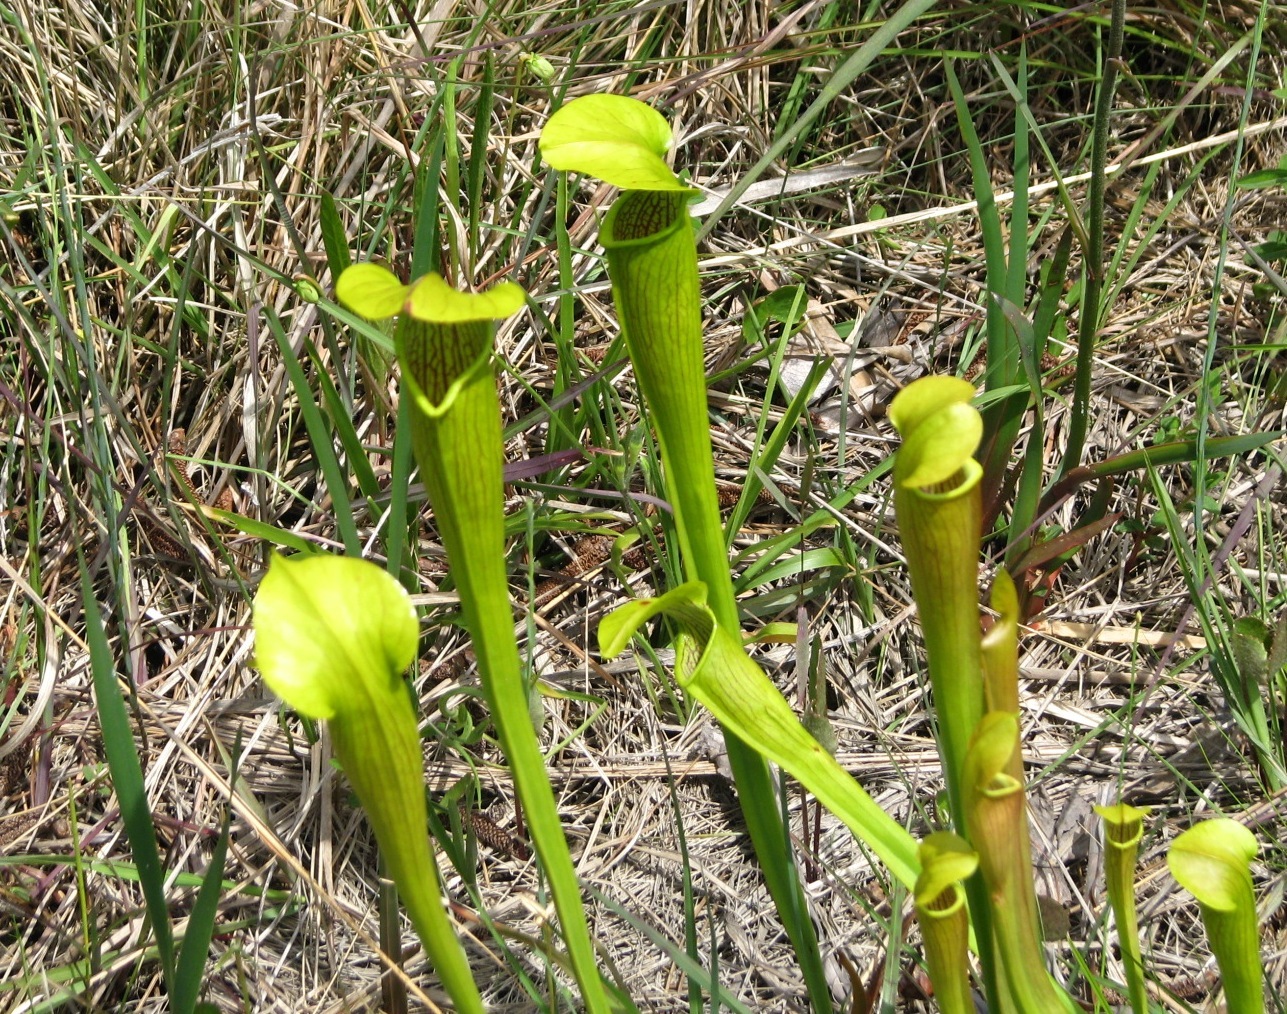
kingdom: Plantae
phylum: Tracheophyta
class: Magnoliopsida
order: Ericales
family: Sarraceniaceae
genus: Sarracenia
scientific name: Sarracenia alata
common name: Yellow trumpets
